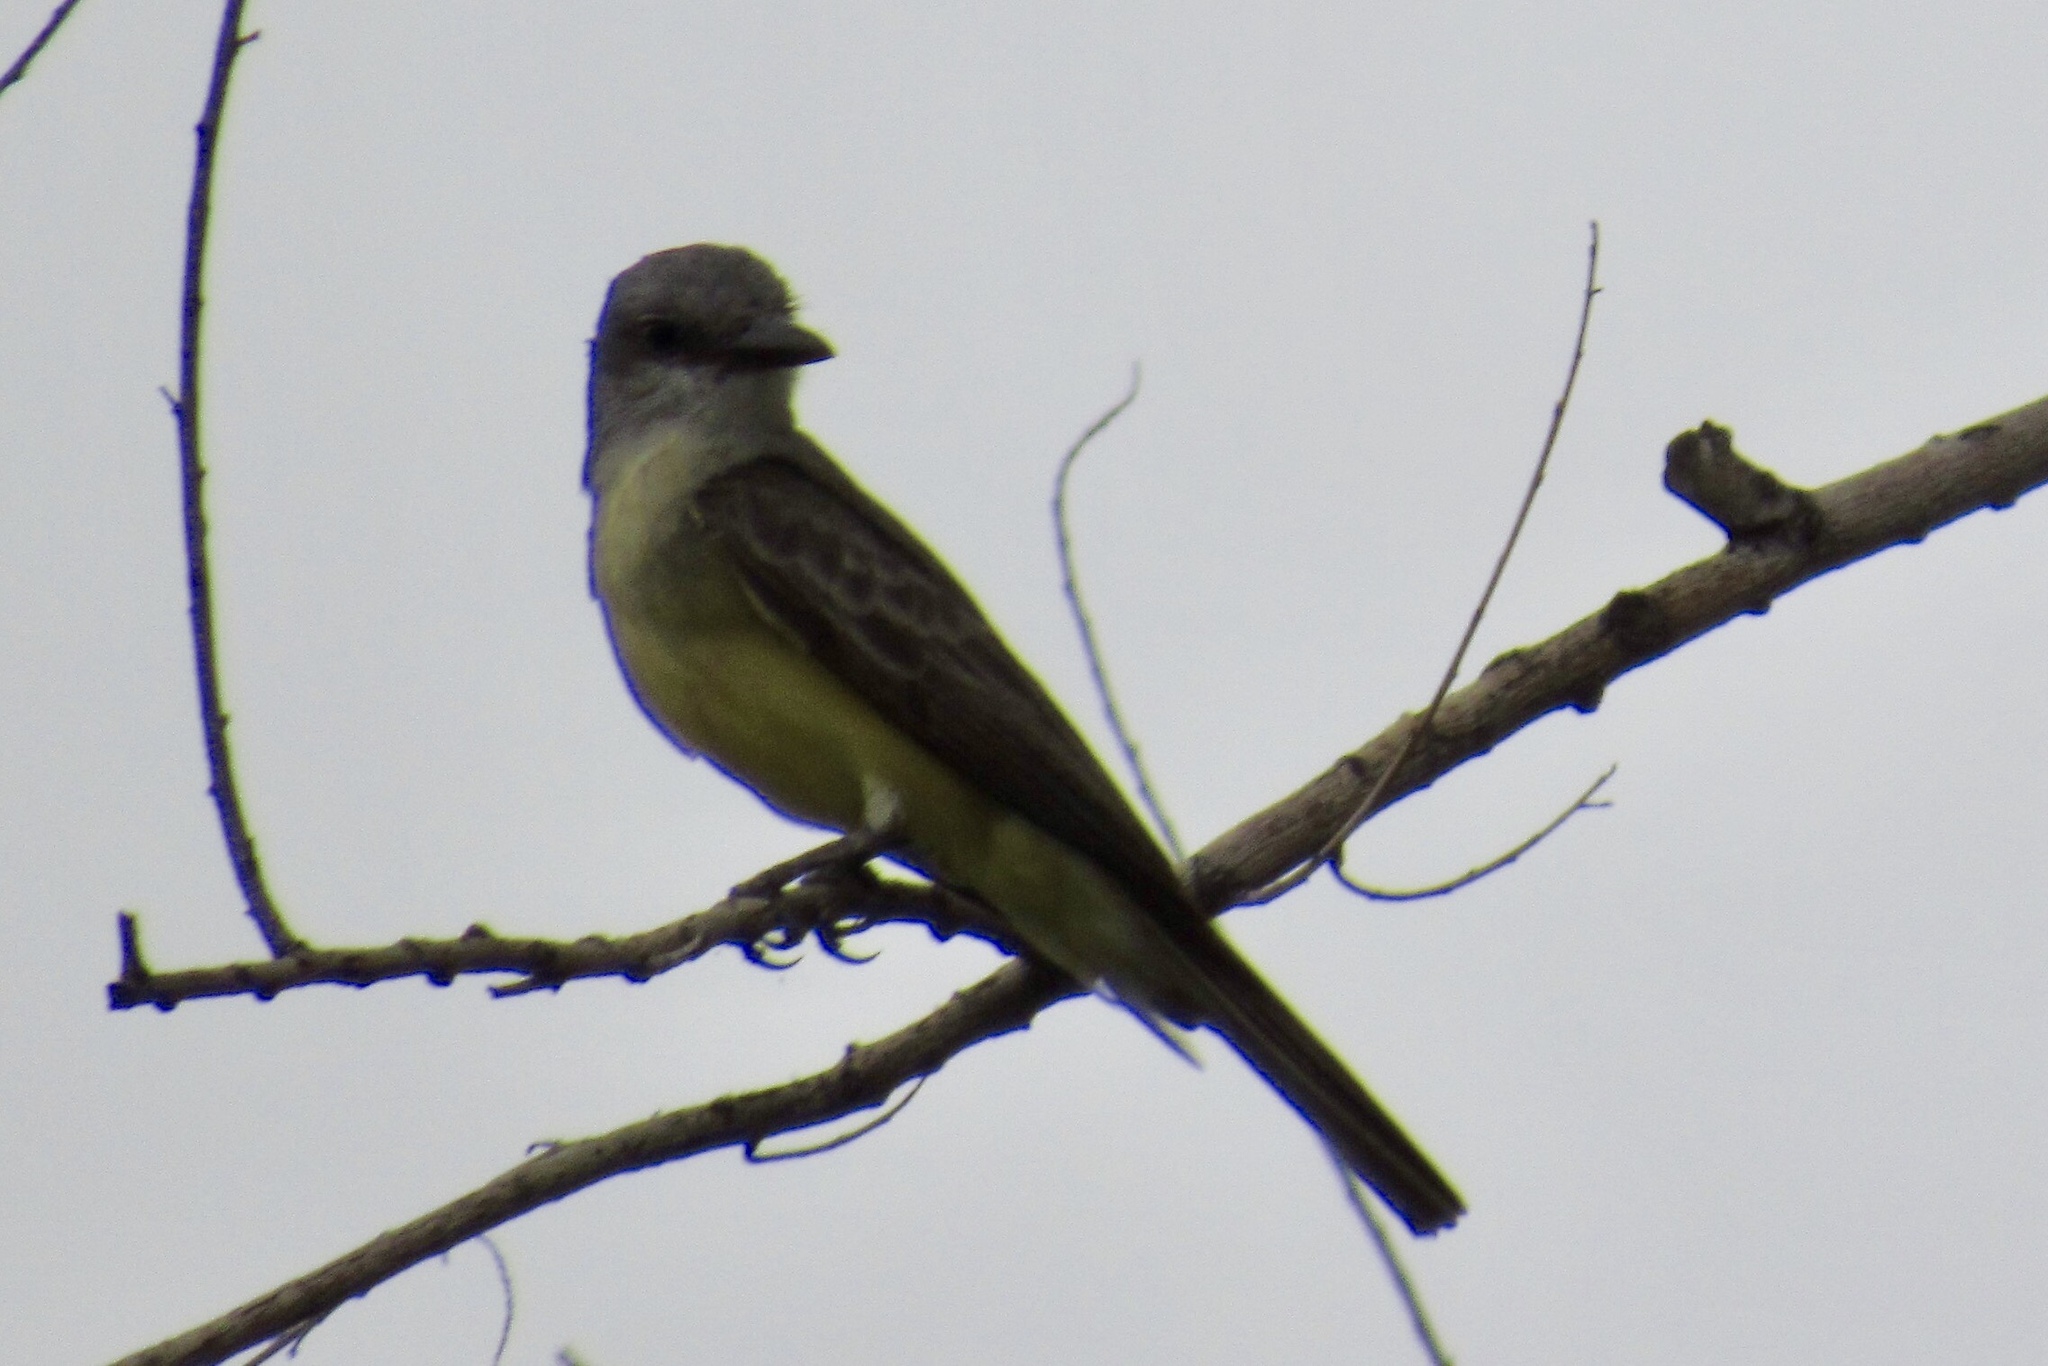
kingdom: Animalia
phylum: Chordata
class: Aves
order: Passeriformes
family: Tyrannidae
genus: Tyrannus
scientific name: Tyrannus melancholicus
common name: Tropical kingbird
